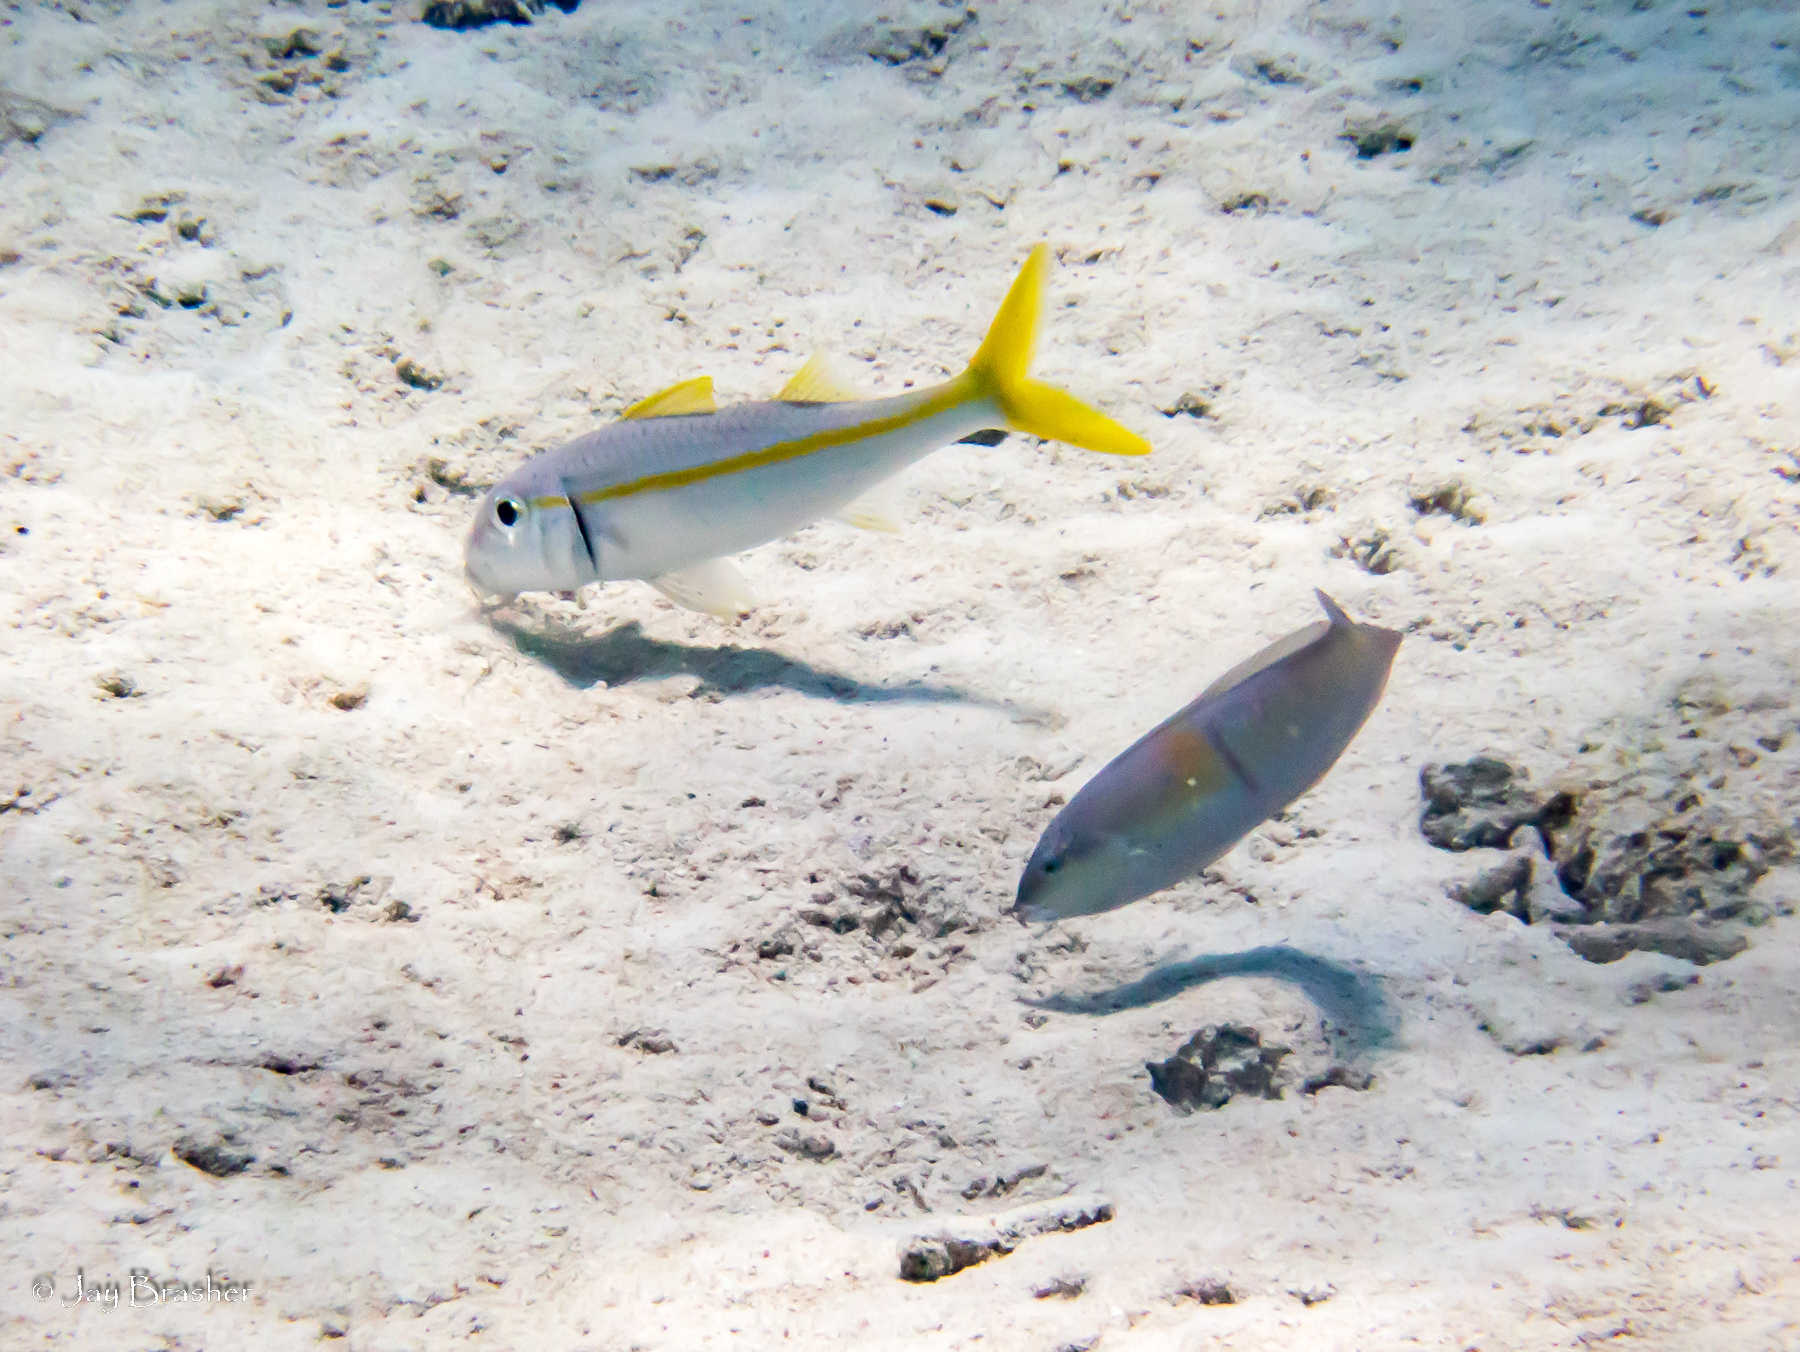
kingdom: Animalia
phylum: Chordata
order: Perciformes
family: Mullidae
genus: Mulloidichthys
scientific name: Mulloidichthys martinicus
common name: Yellow goatfish
